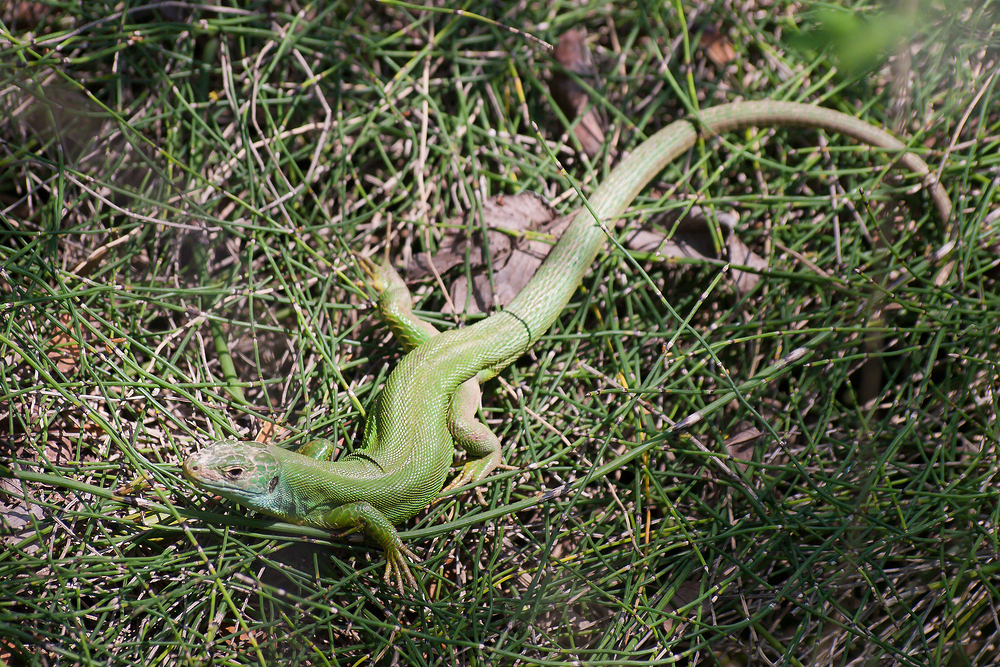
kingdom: Animalia
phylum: Chordata
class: Squamata
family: Lacertidae
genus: Lacerta
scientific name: Lacerta bilineata
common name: Western green lizard
